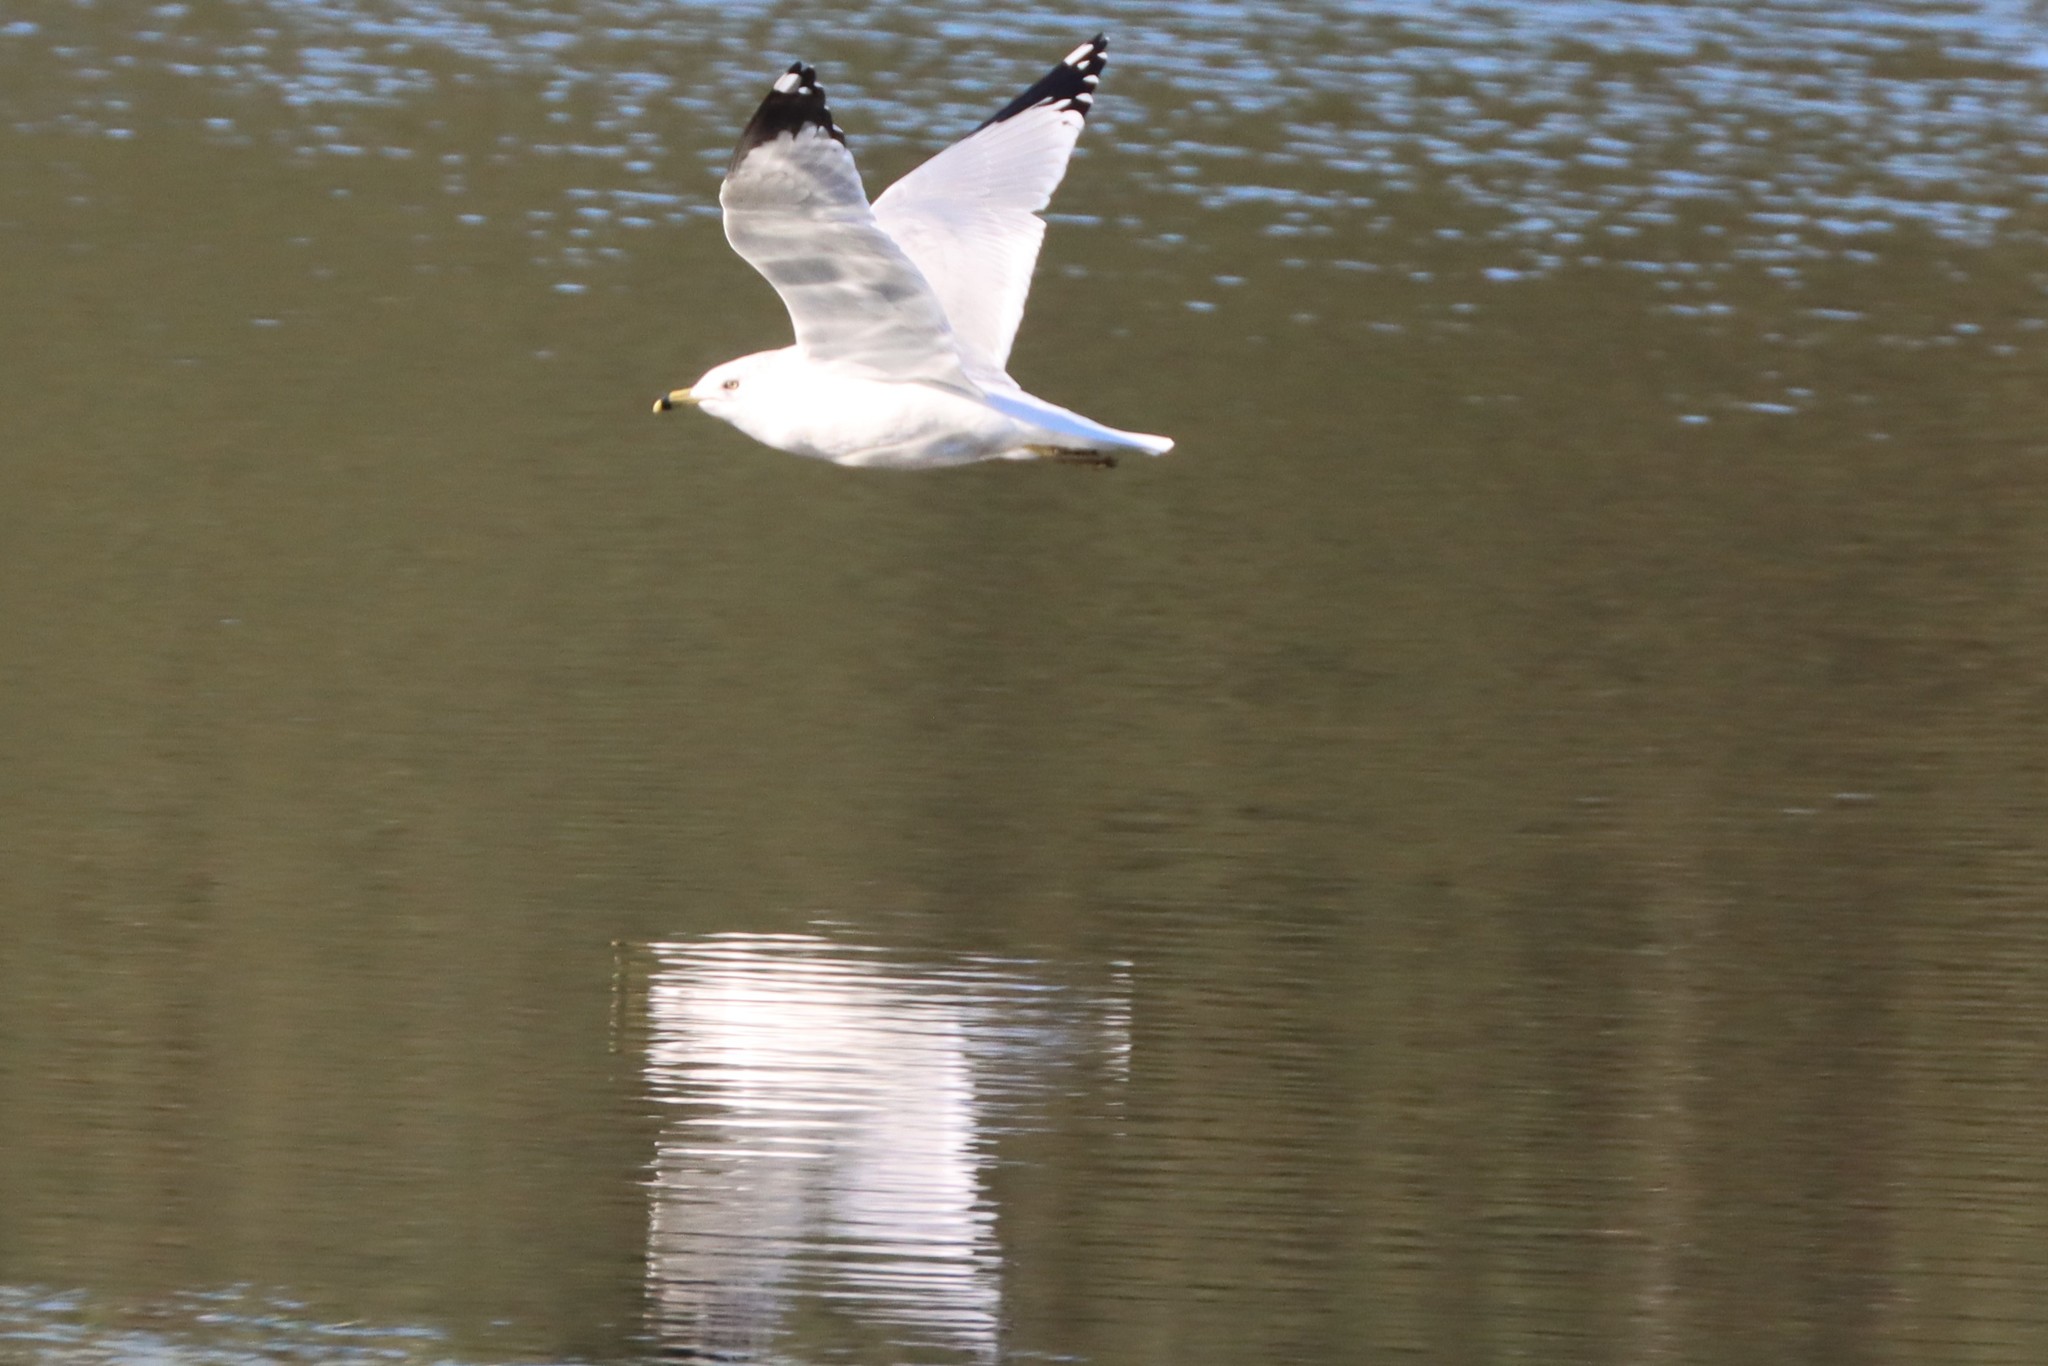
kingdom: Animalia
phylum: Chordata
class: Aves
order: Charadriiformes
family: Laridae
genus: Larus
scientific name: Larus delawarensis
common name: Ring-billed gull
